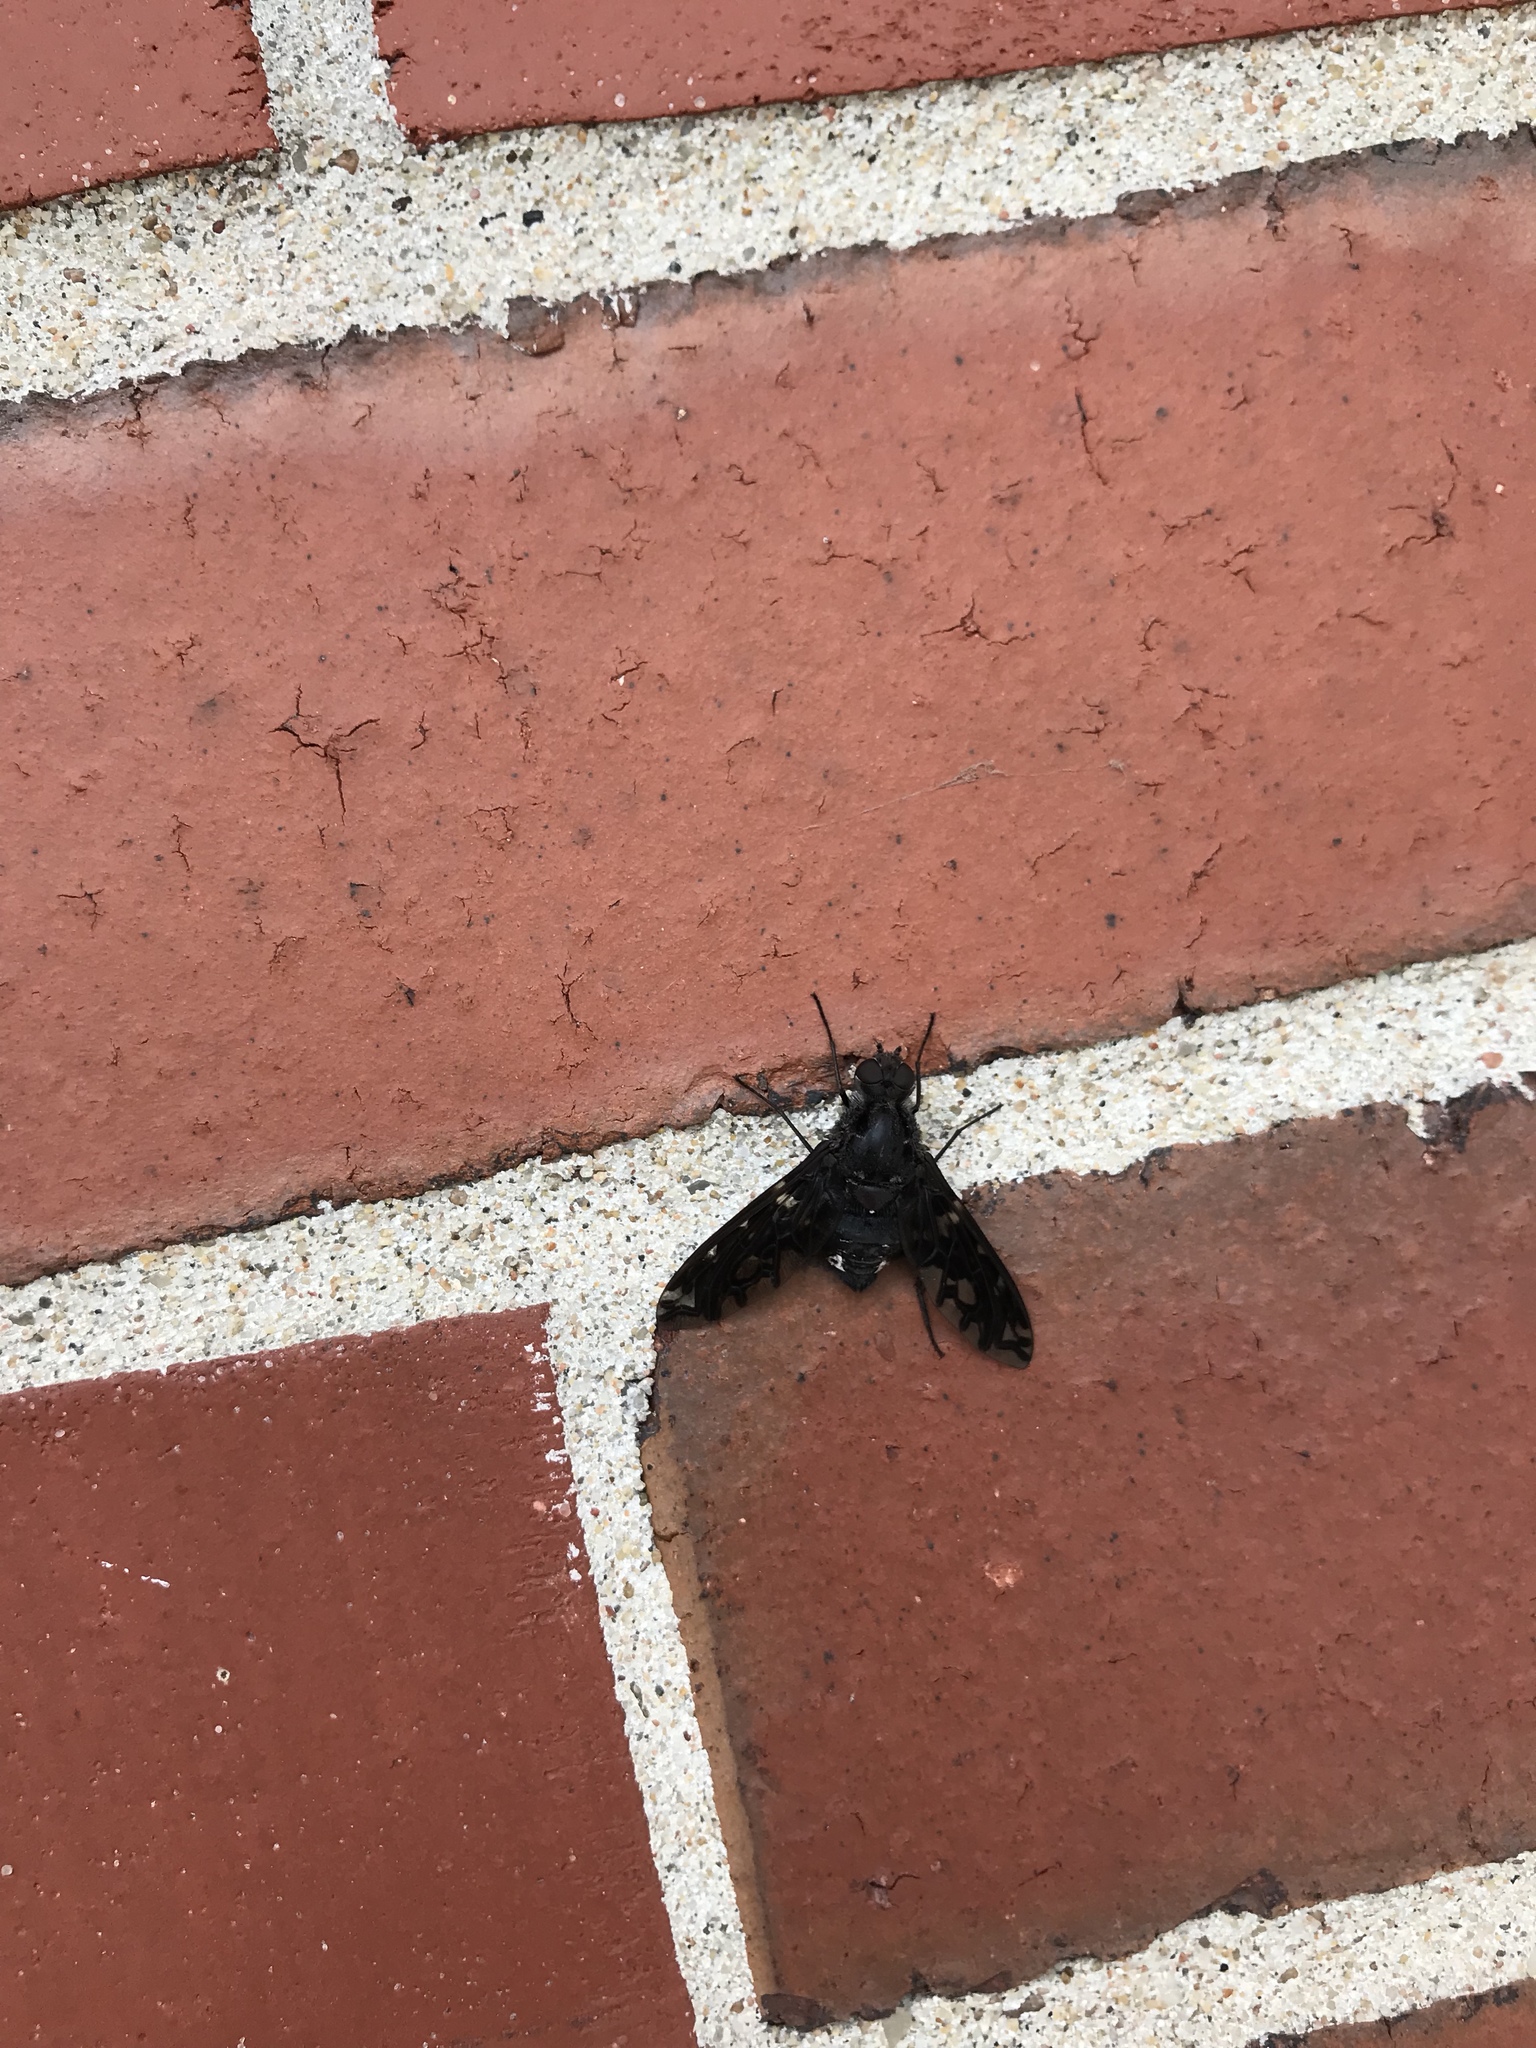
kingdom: Animalia
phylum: Arthropoda
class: Insecta
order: Diptera
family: Bombyliidae
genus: Xenox
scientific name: Xenox tigrinus
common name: Tiger bee fly
